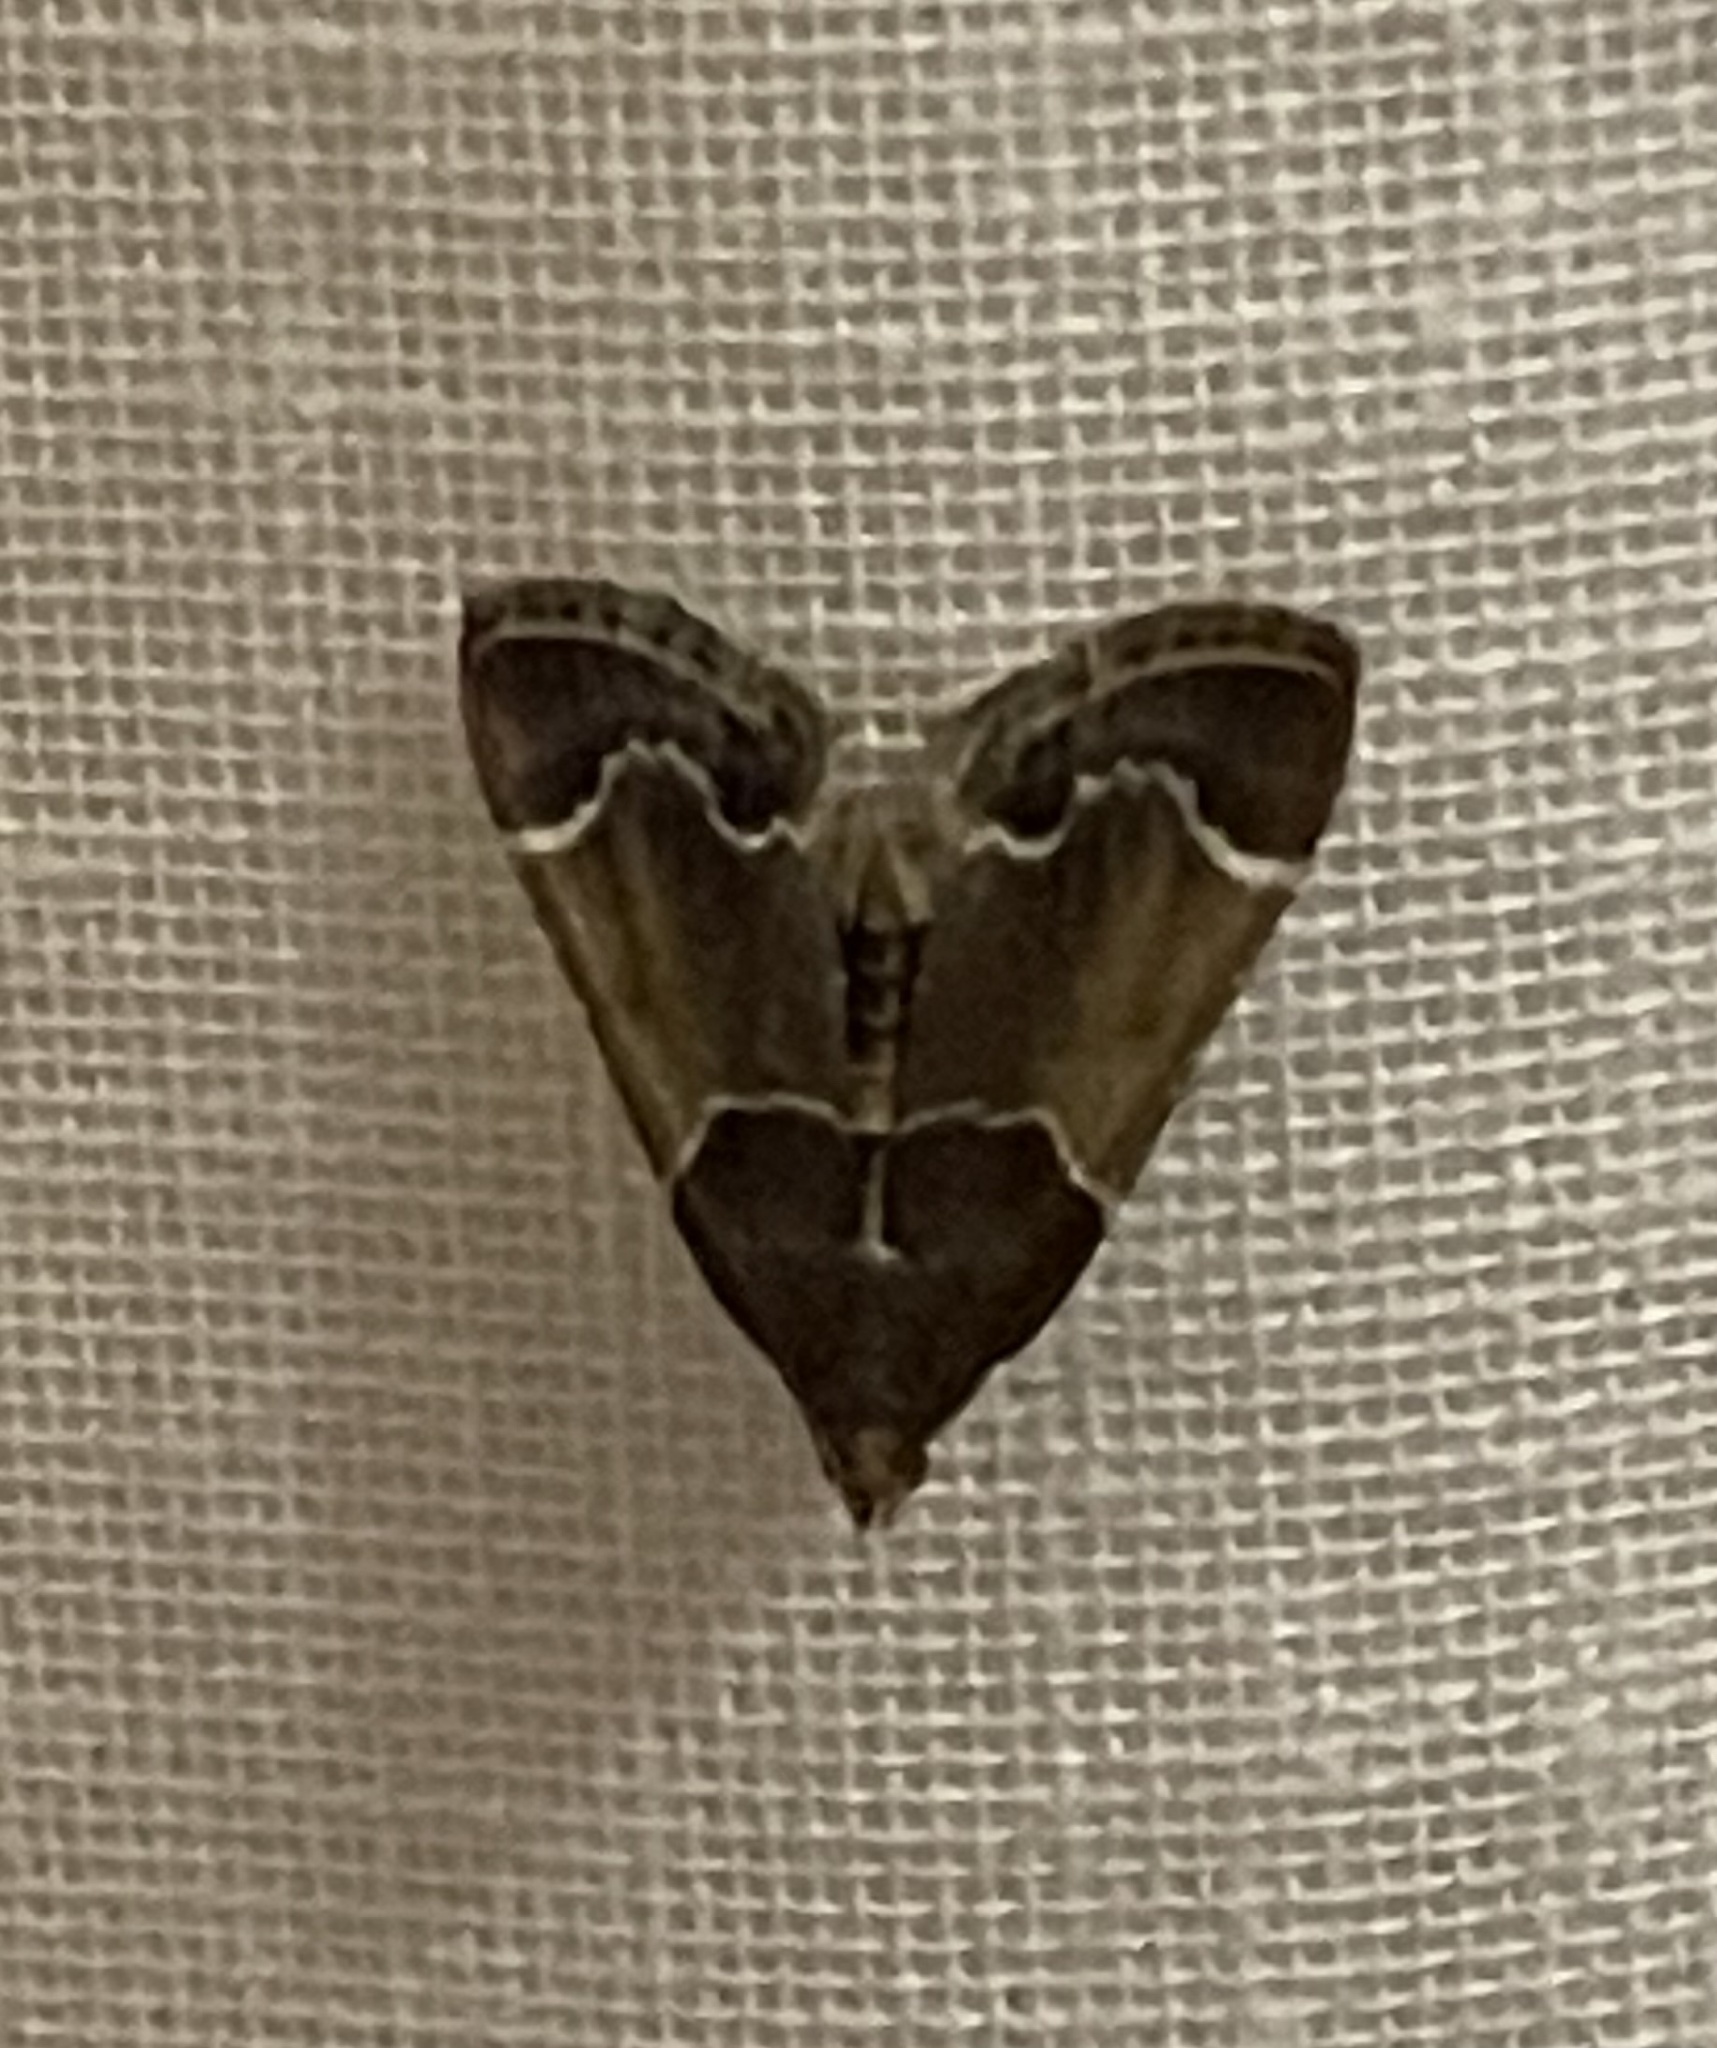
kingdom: Animalia
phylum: Arthropoda
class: Insecta
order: Lepidoptera
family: Pyralidae
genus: Pyralis
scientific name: Pyralis farinalis
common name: Meal moth
